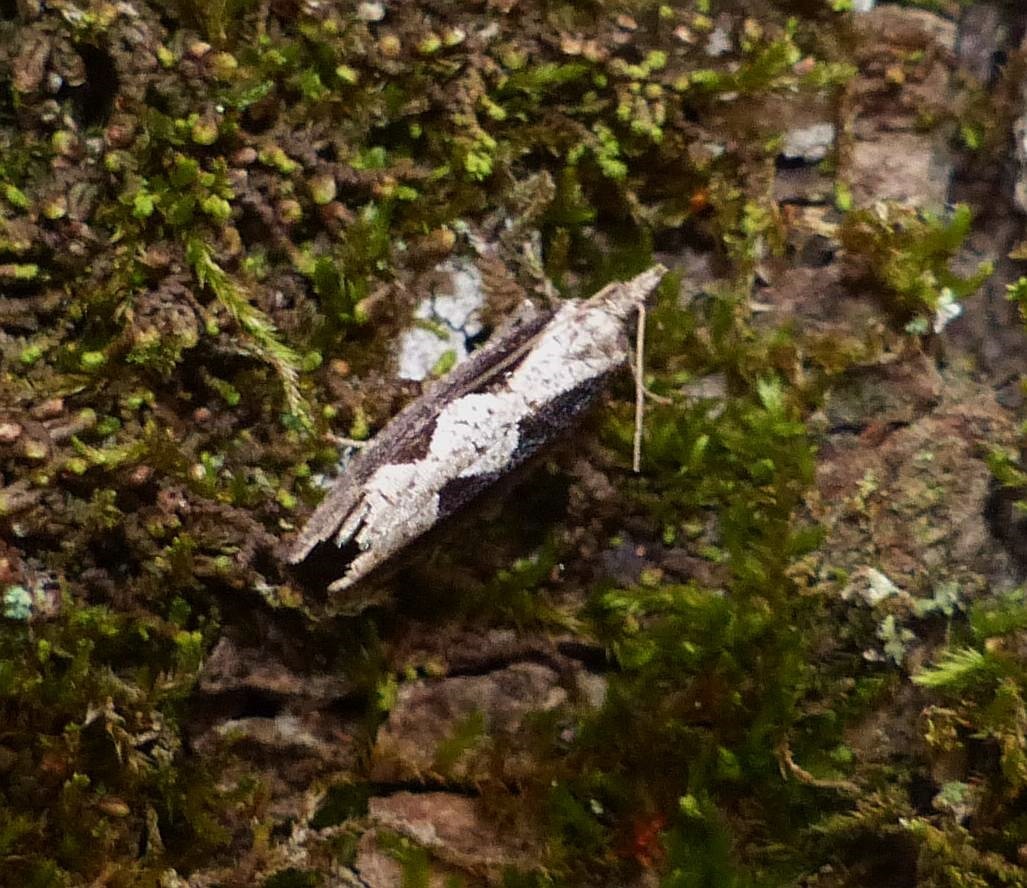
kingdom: Animalia
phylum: Arthropoda
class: Insecta
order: Lepidoptera
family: Tortricidae
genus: Epinotia
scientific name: Epinotia lindana
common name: Diamondback epinotia moth
